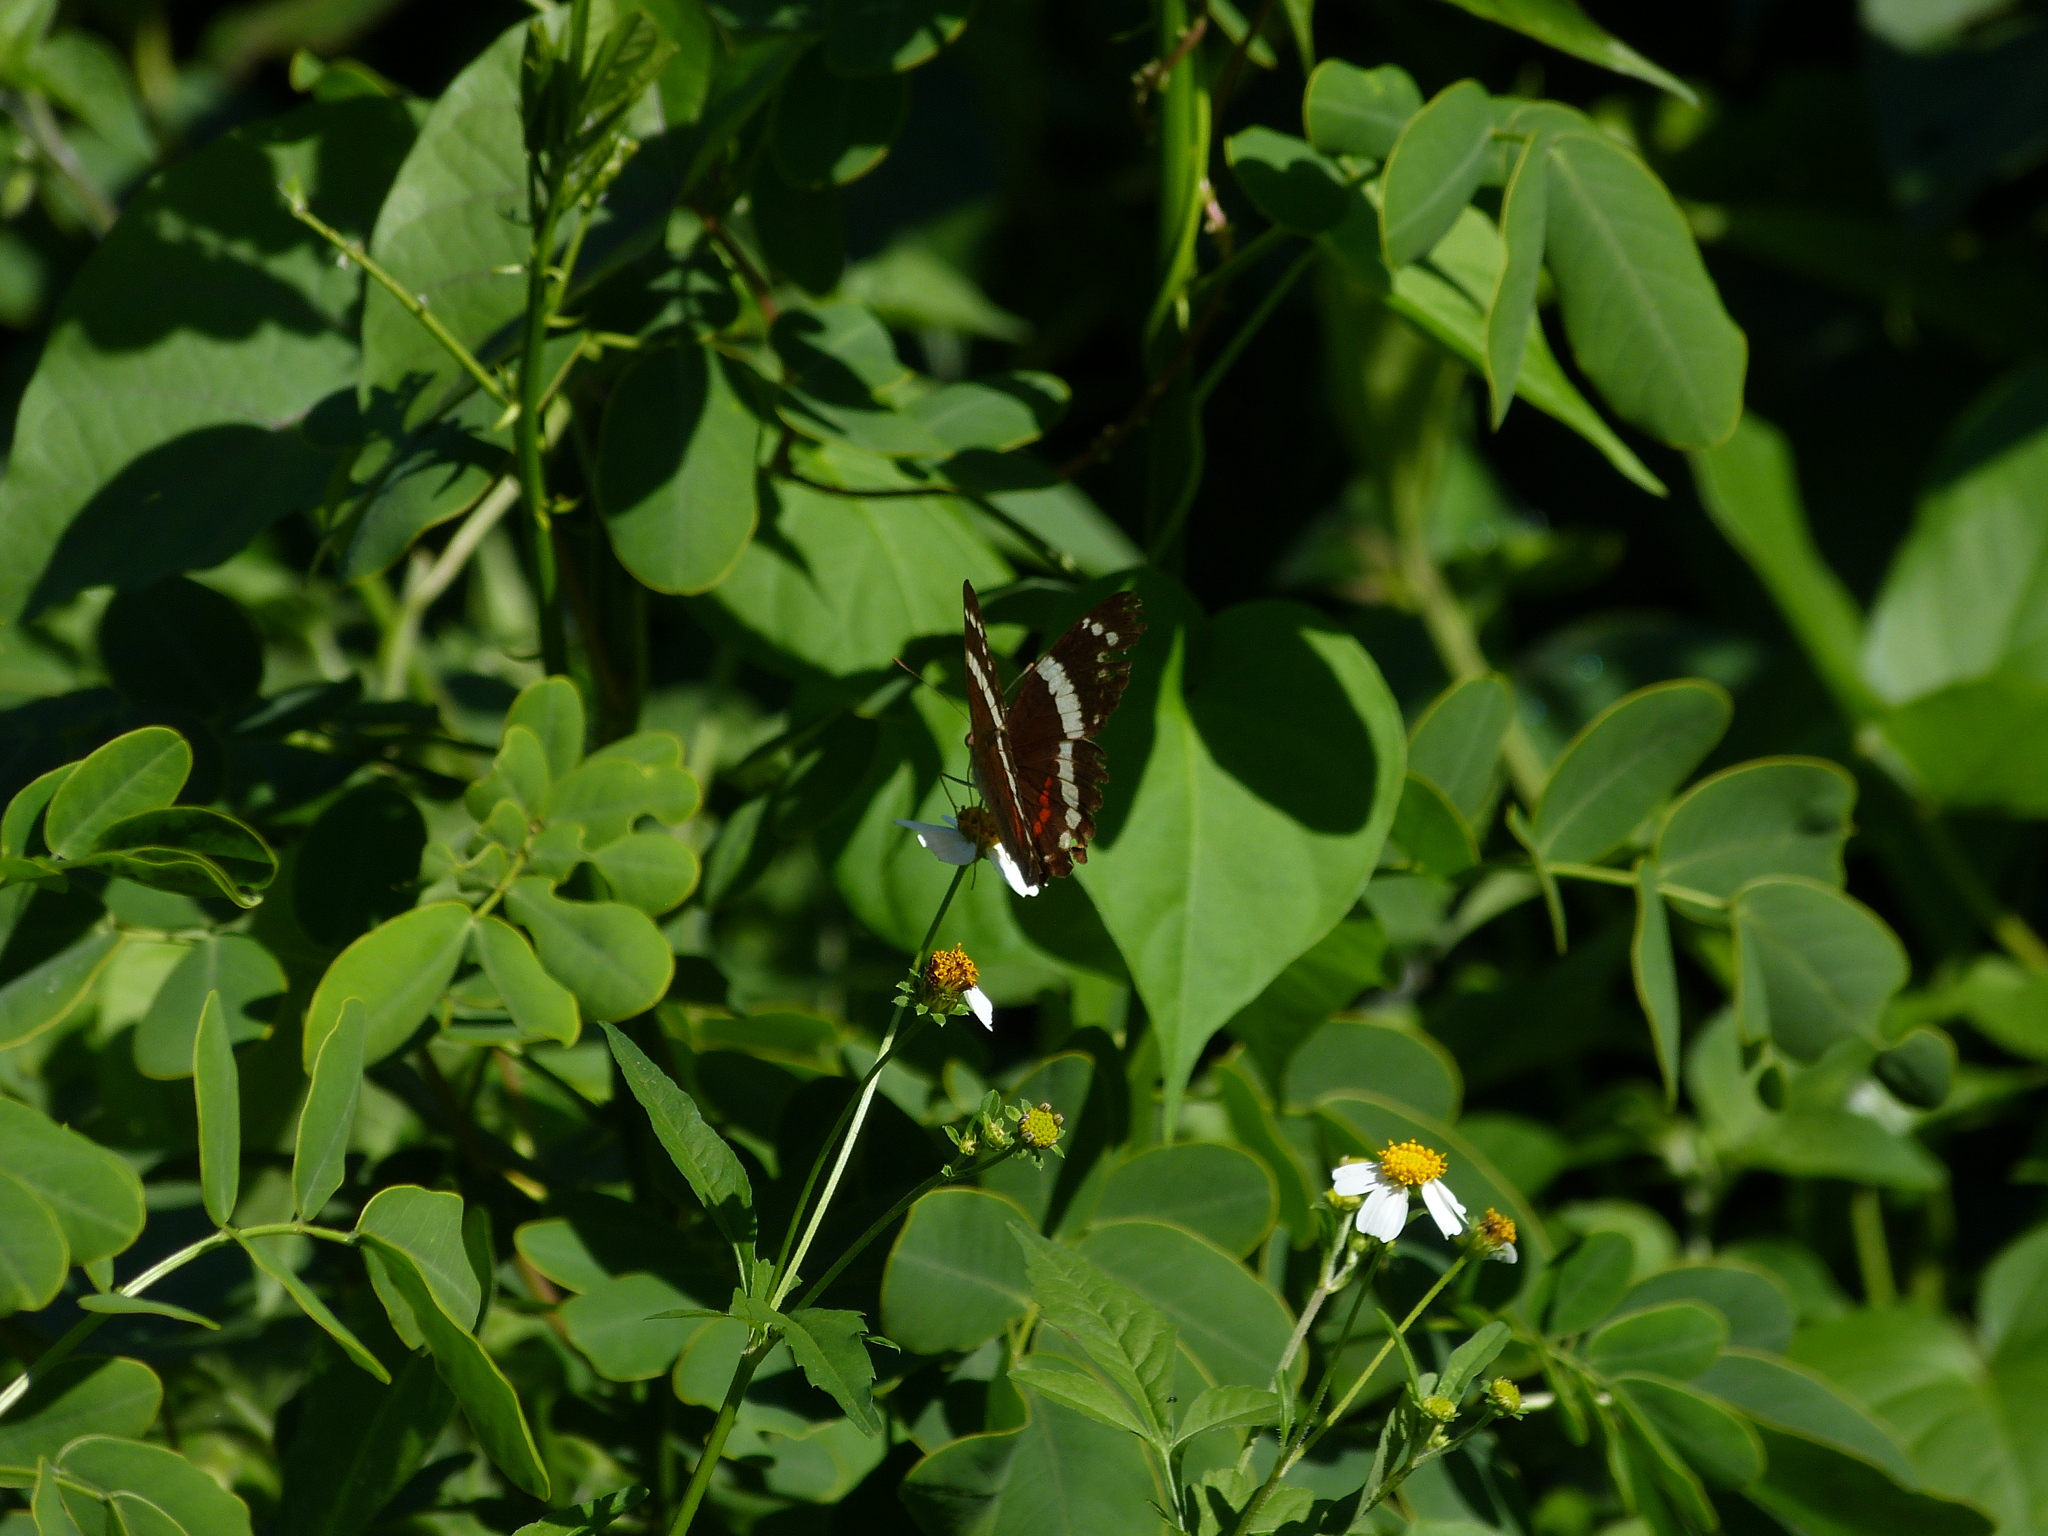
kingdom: Animalia
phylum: Arthropoda
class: Insecta
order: Lepidoptera
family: Nymphalidae
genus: Anartia
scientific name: Anartia fatima
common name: Banded peacock
